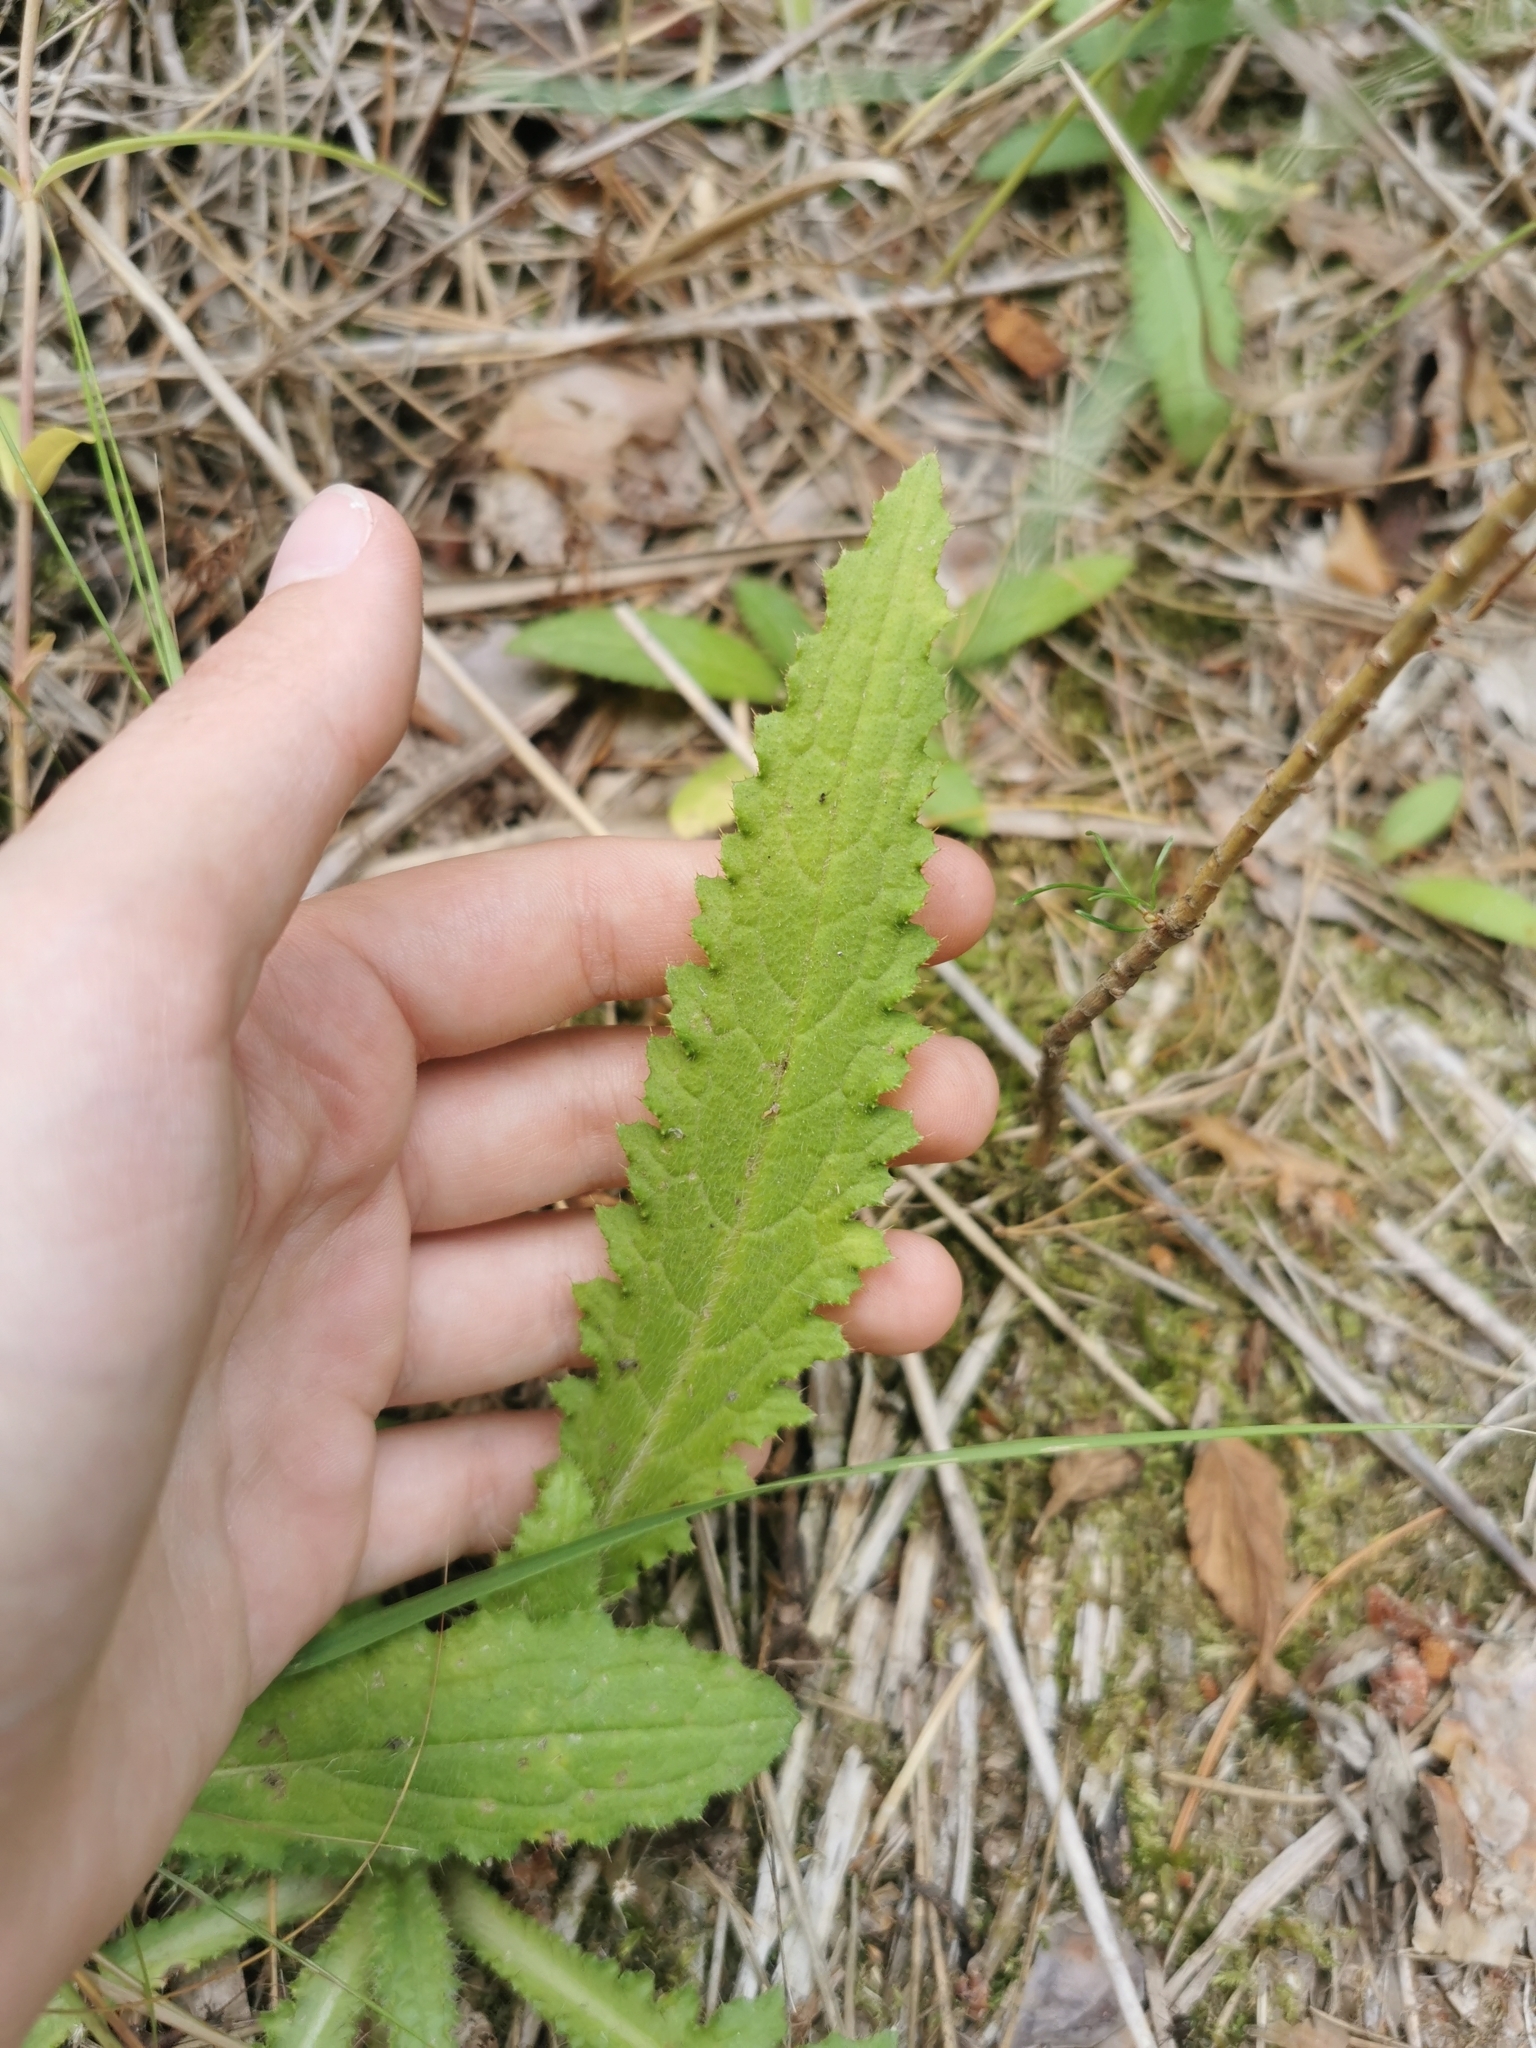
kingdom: Plantae
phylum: Tracheophyta
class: Magnoliopsida
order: Asterales
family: Asteraceae
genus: Cirsium
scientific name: Cirsium palustre
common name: Marsh thistle
